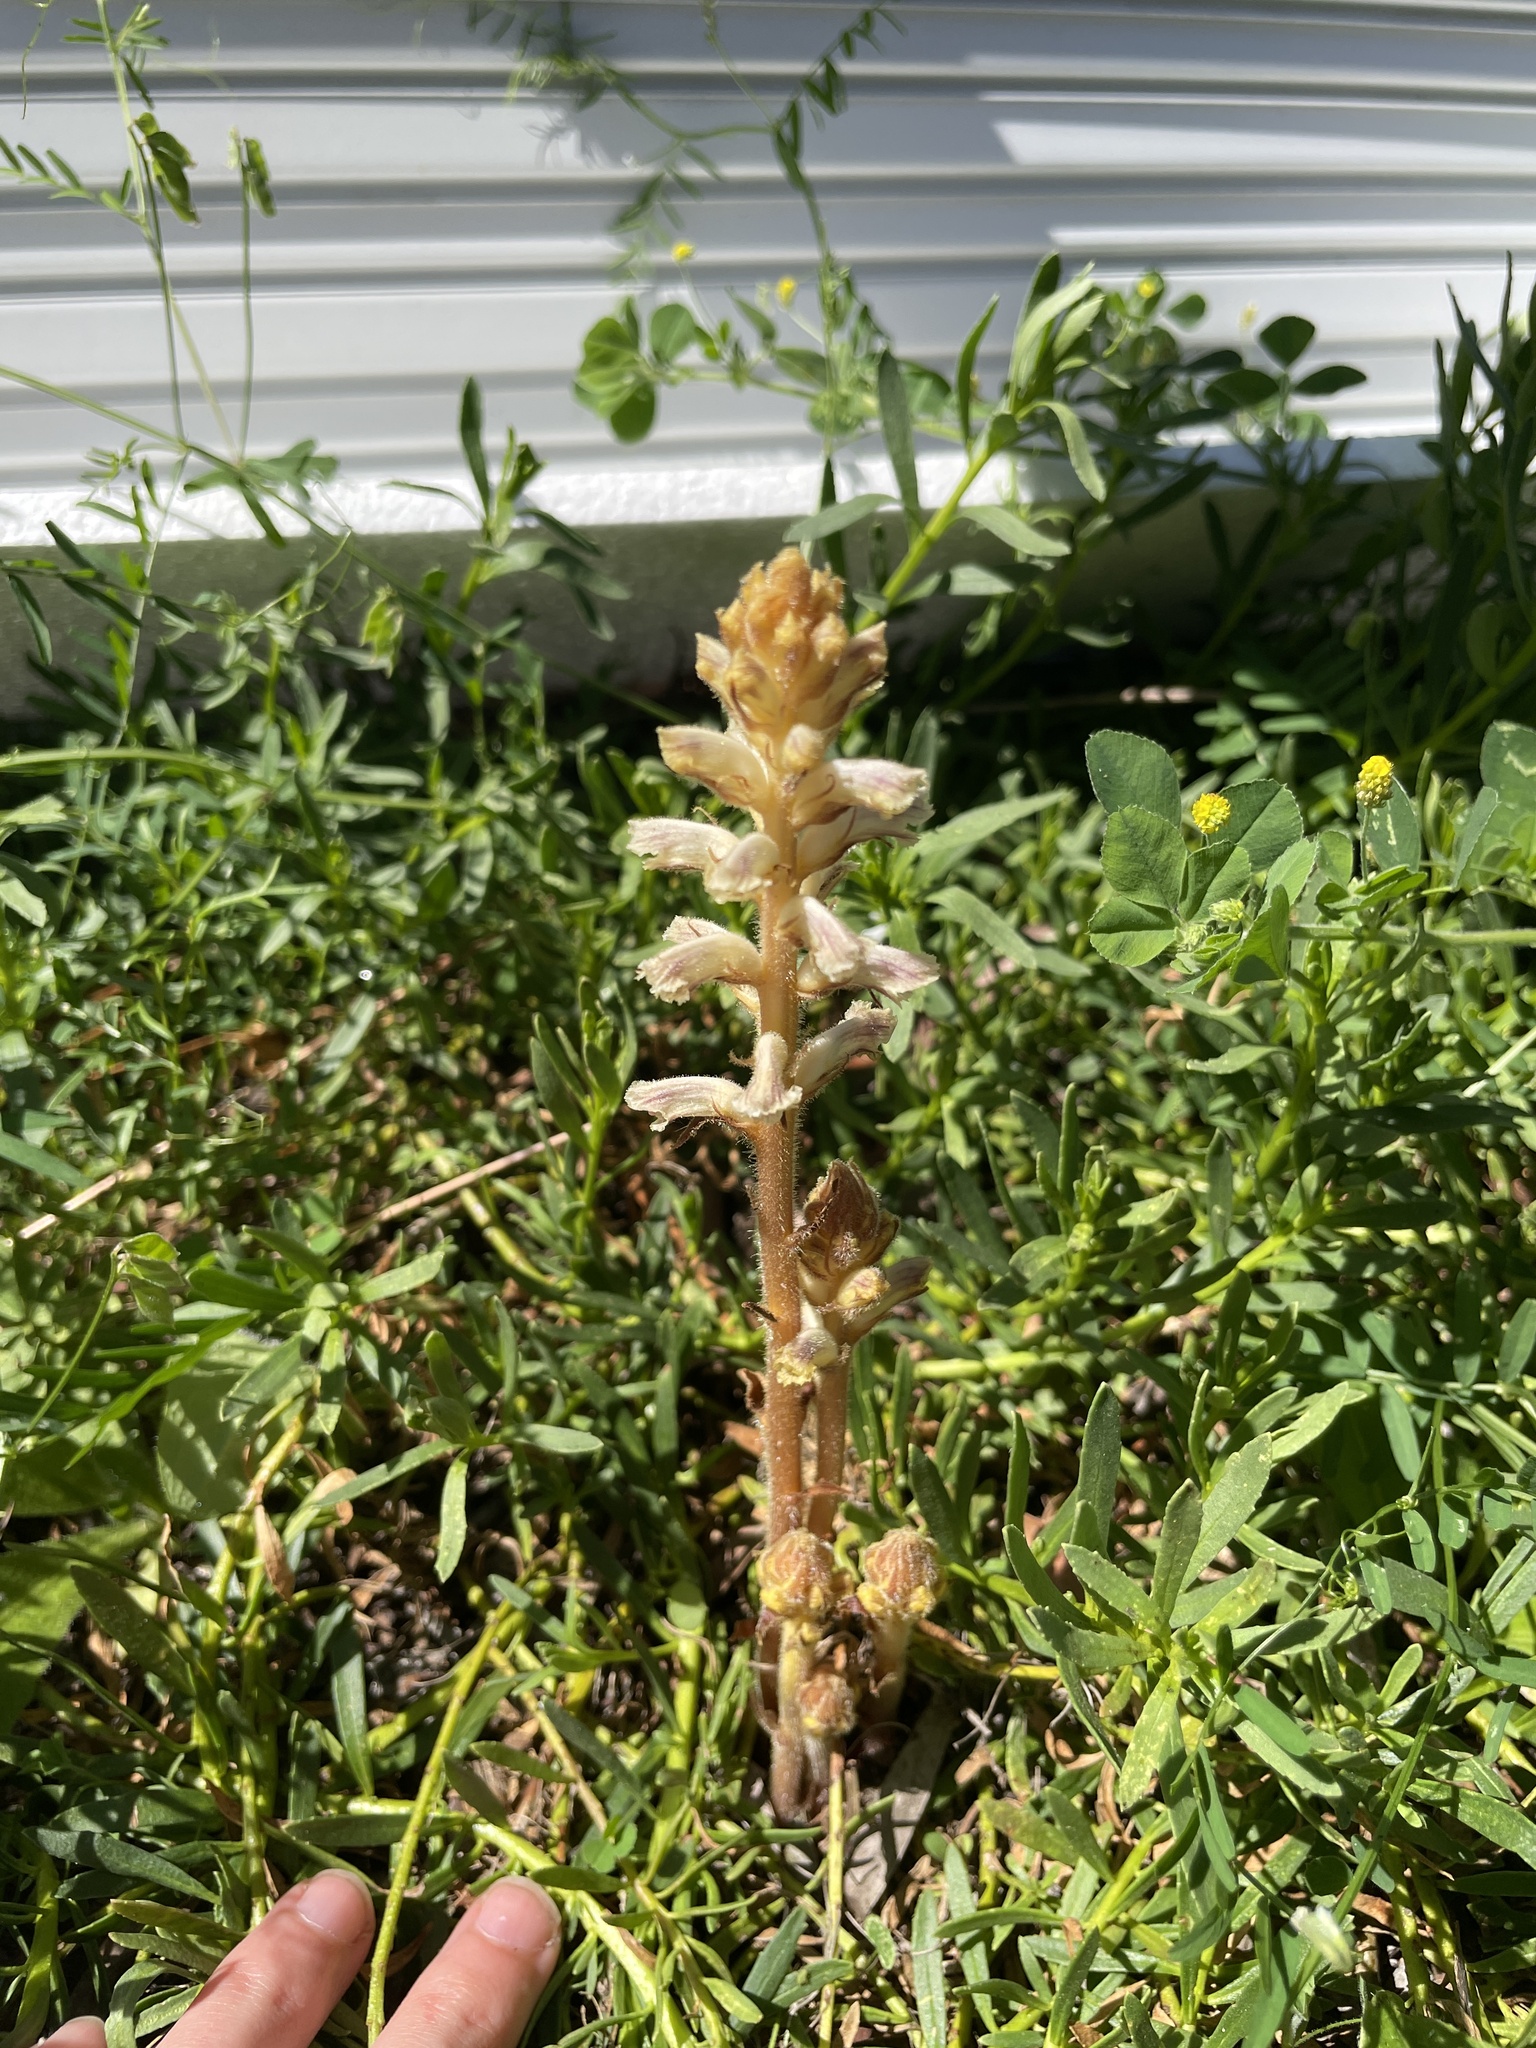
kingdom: Plantae
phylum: Tracheophyta
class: Magnoliopsida
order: Lamiales
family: Orobanchaceae
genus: Orobanche
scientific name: Orobanche minor
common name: Common broomrape
